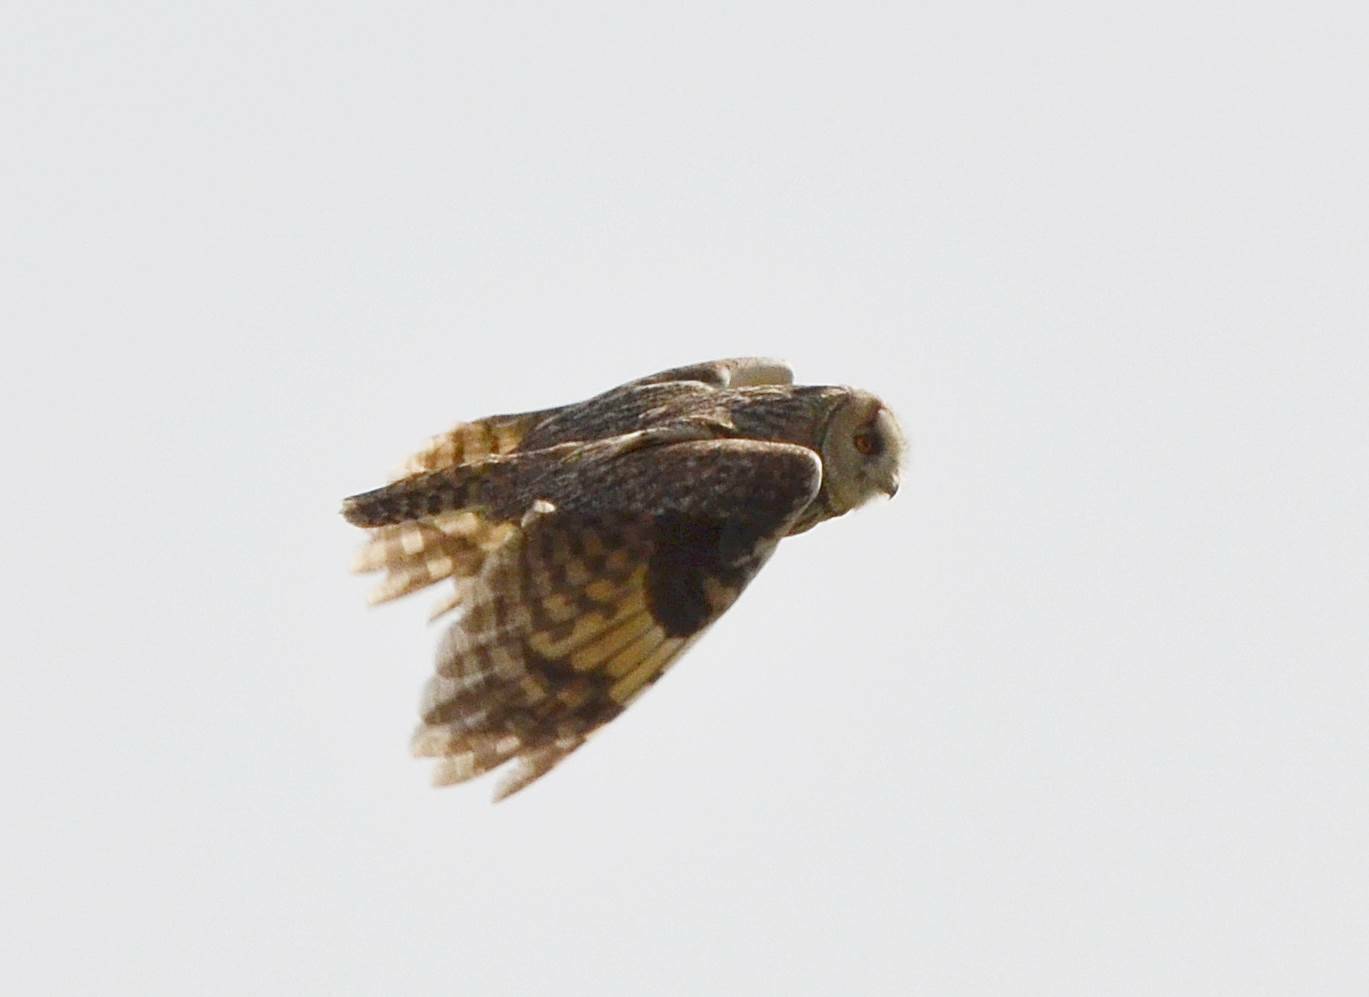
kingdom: Animalia
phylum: Chordata
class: Aves
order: Strigiformes
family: Strigidae
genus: Asio
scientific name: Asio otus
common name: Long-eared owl
